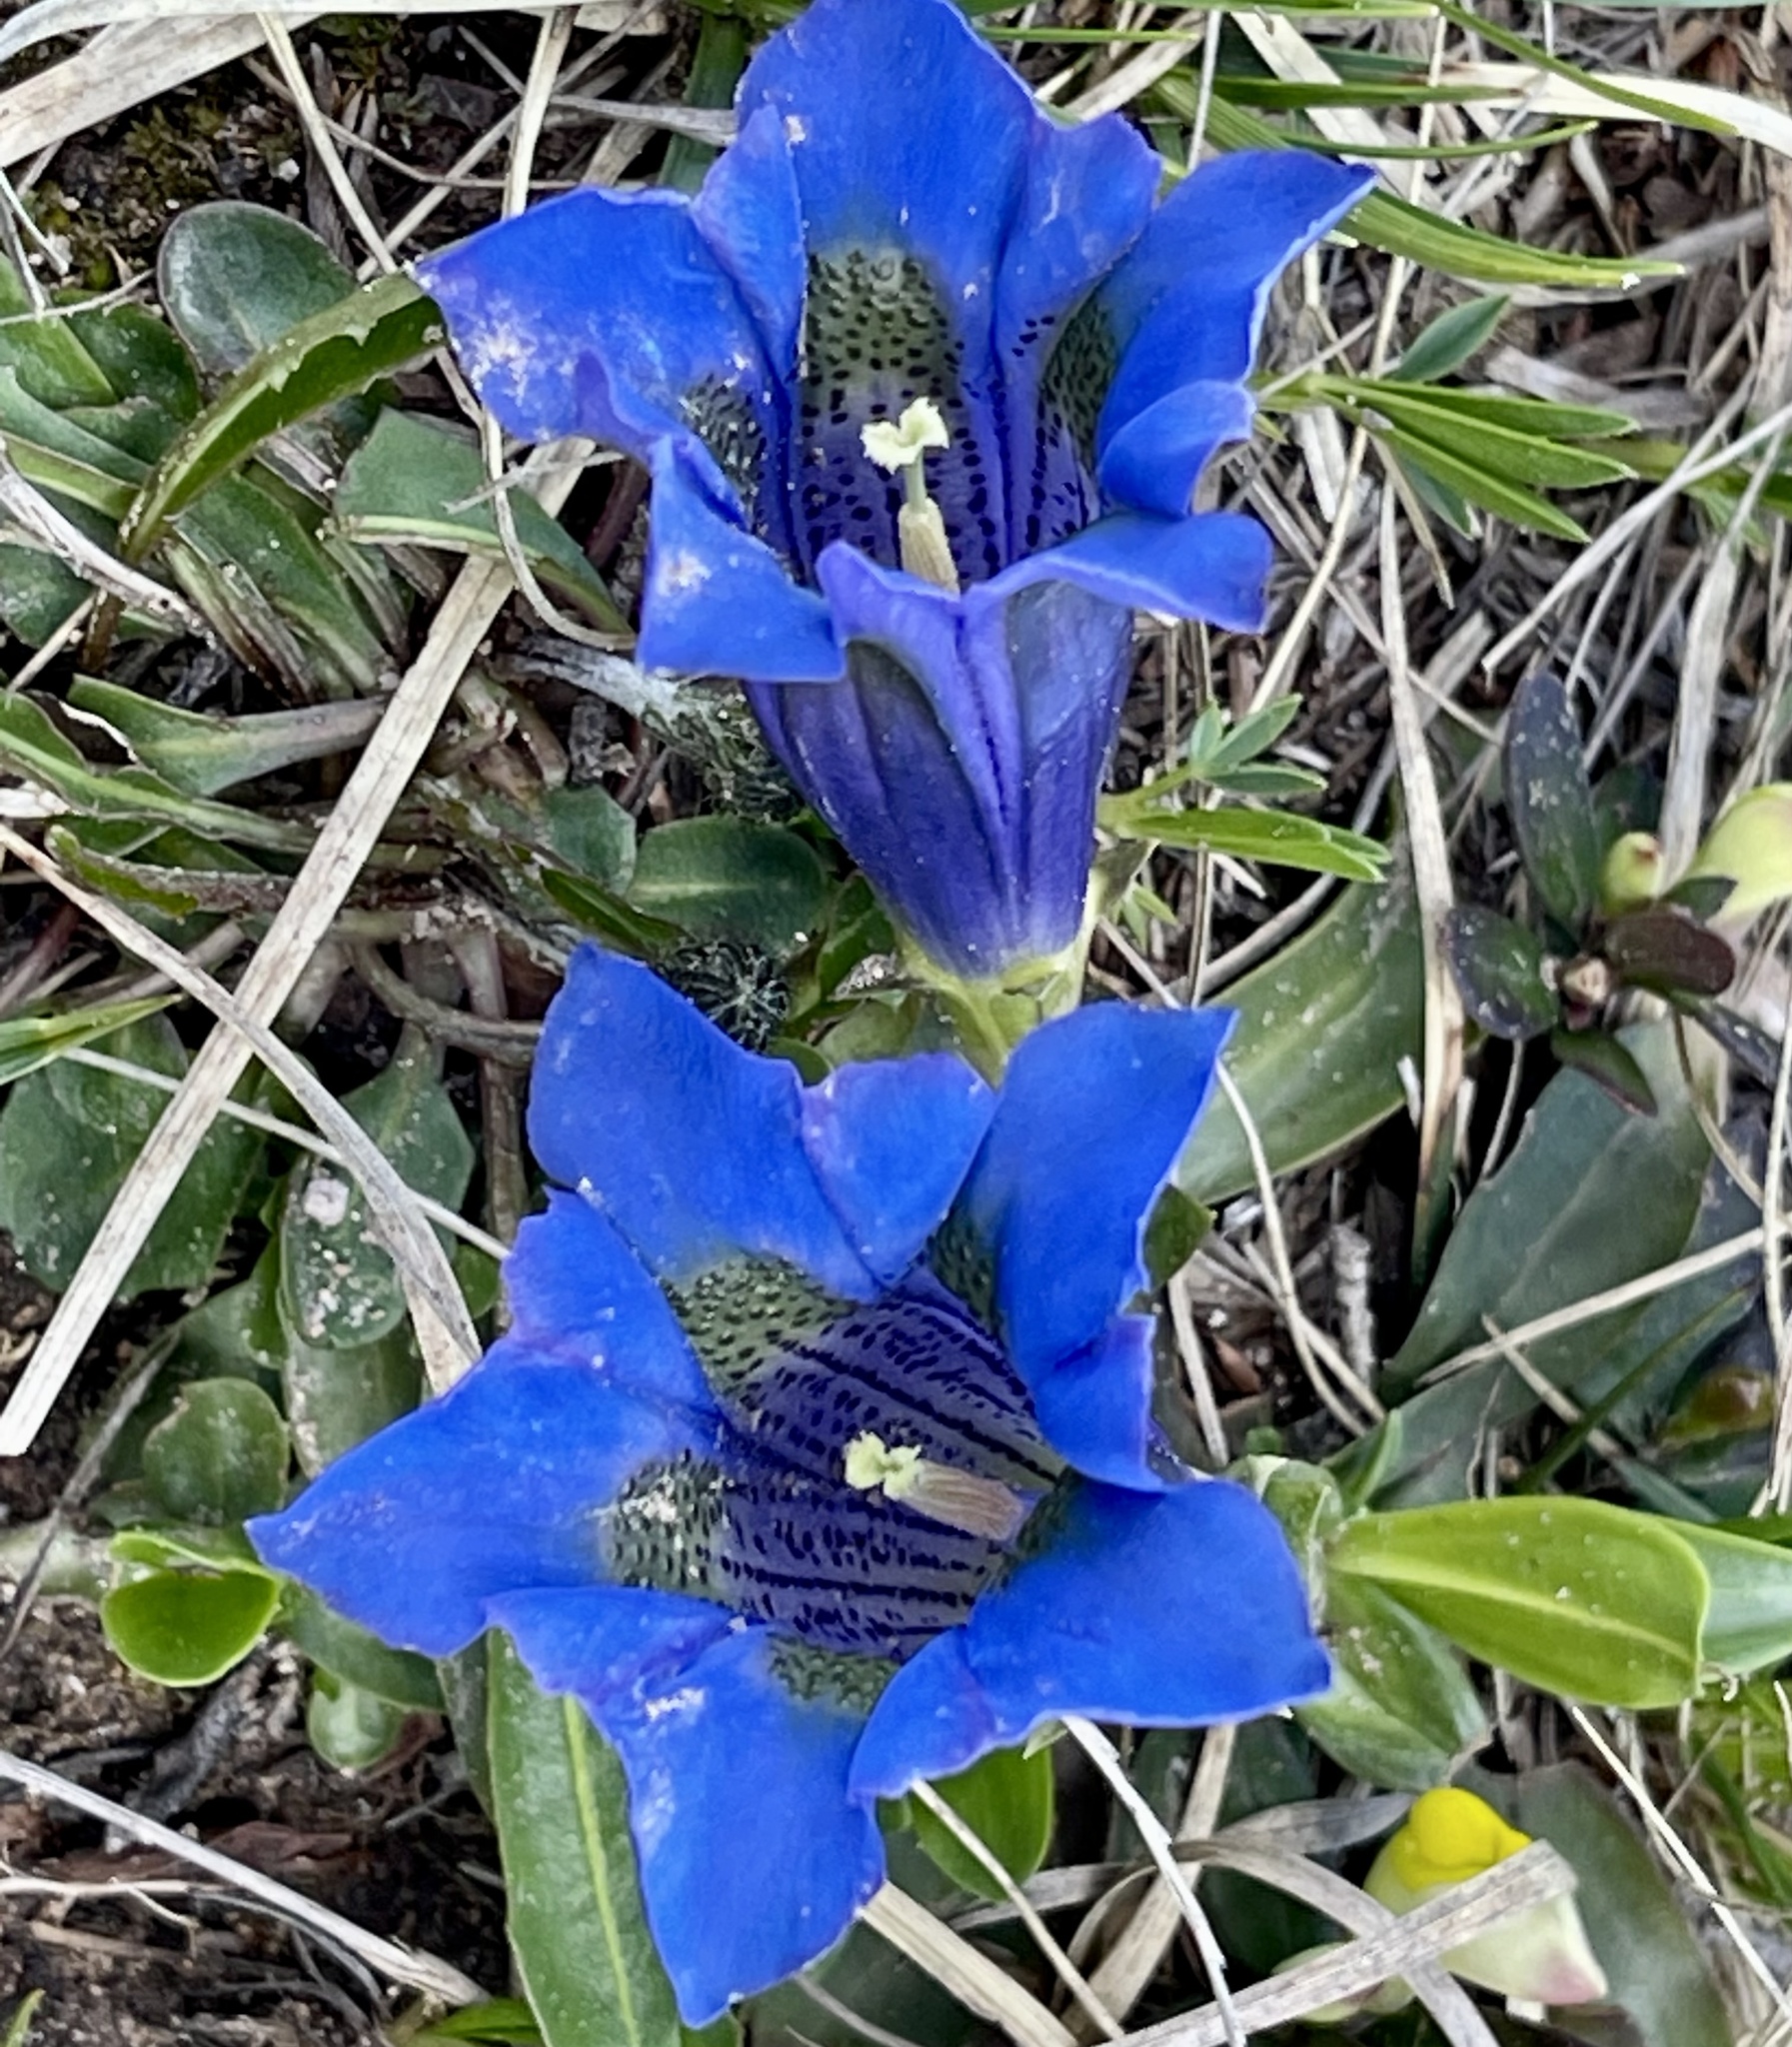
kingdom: Plantae
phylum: Tracheophyta
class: Magnoliopsida
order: Gentianales
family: Gentianaceae
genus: Gentiana
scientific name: Gentiana acaulis
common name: Trumpet gentian
